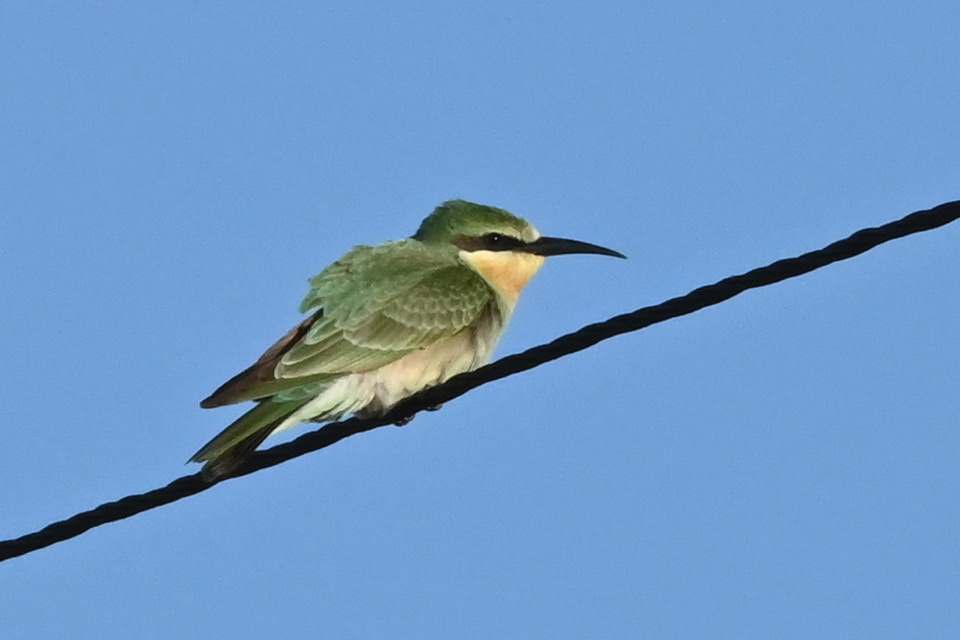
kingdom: Animalia
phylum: Chordata
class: Aves
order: Coraciiformes
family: Meropidae
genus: Merops
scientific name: Merops persicus
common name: Blue-cheeked bee-eater
